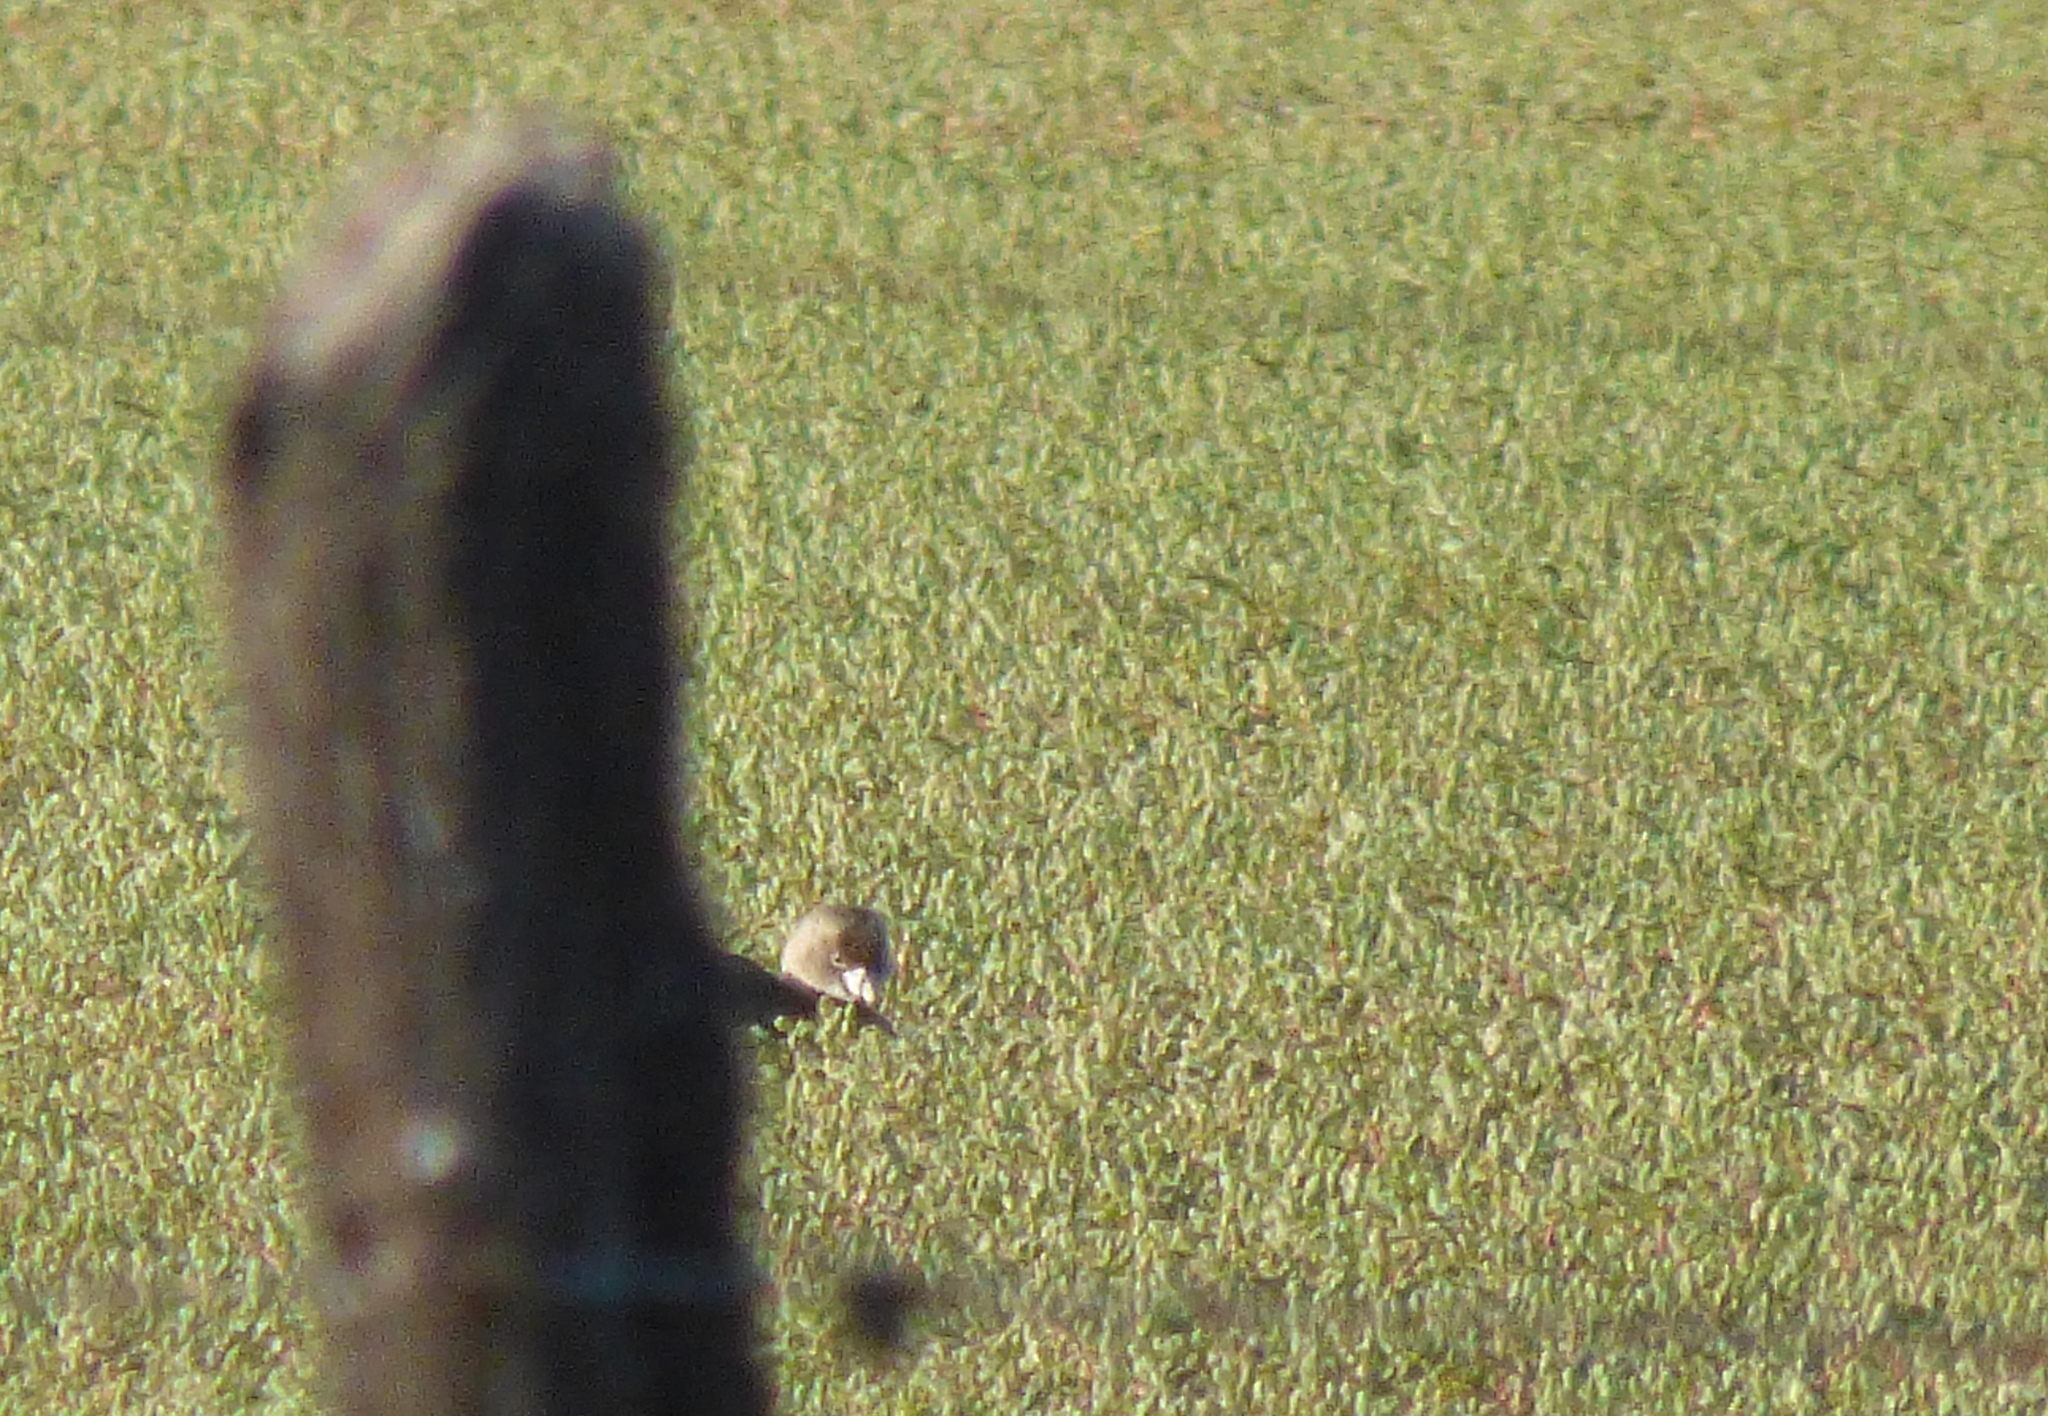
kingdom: Animalia
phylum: Chordata
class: Aves
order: Podicipediformes
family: Podicipedidae
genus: Podilymbus
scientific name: Podilymbus podiceps
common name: Pied-billed grebe
